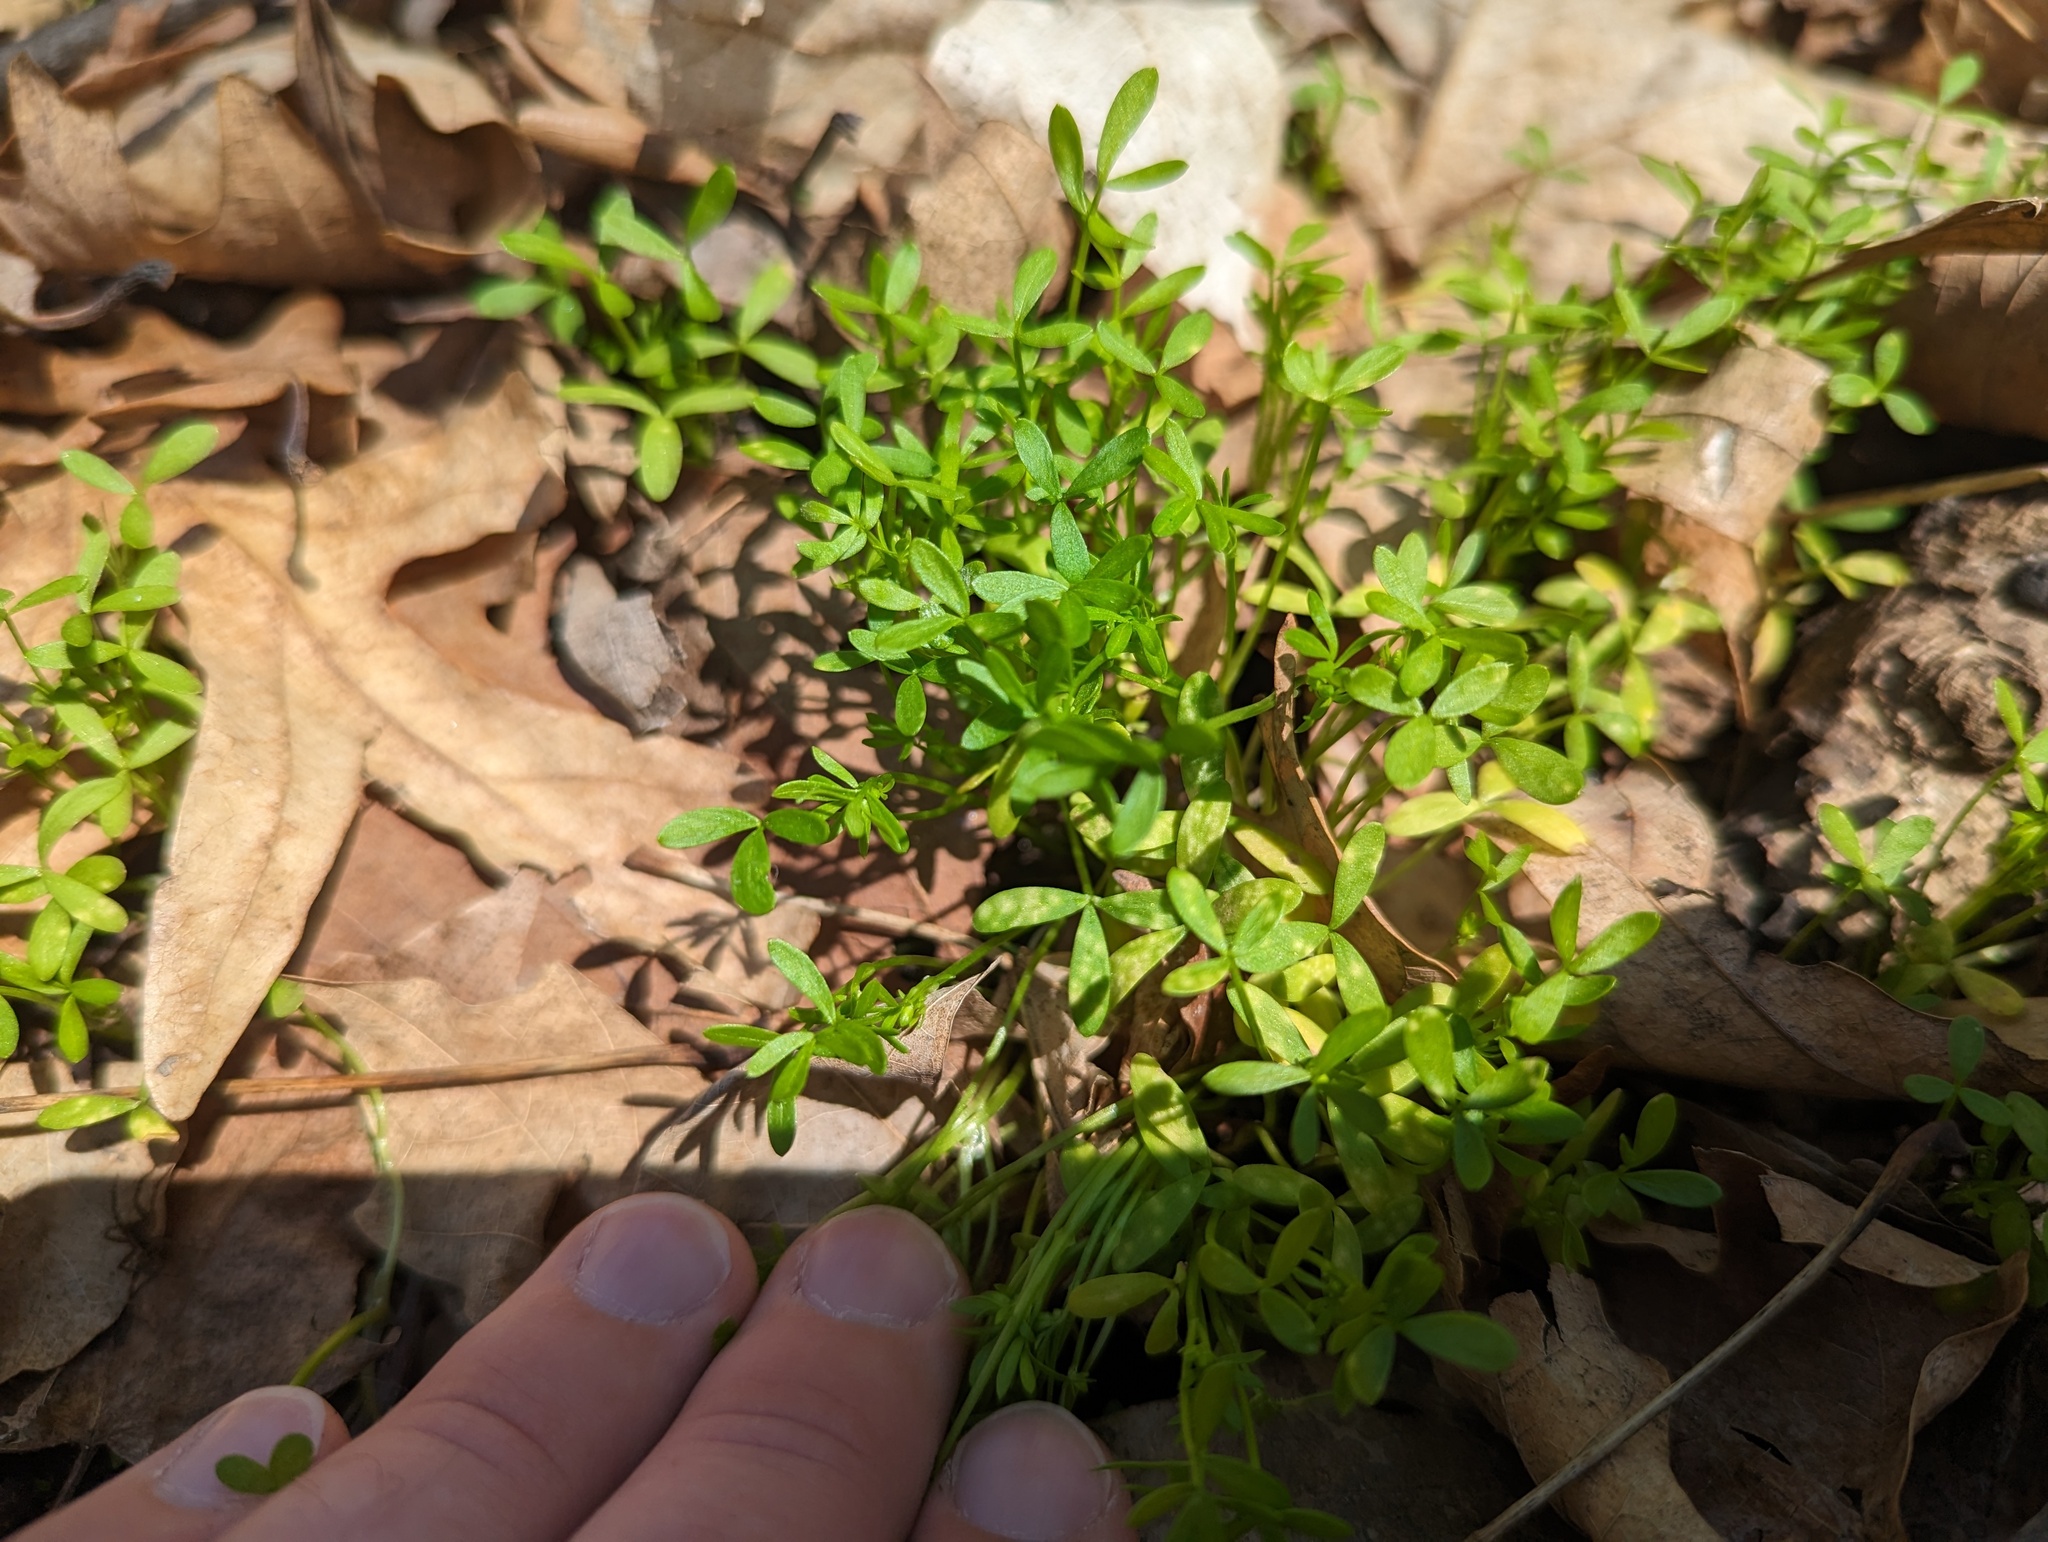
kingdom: Fungi
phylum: Basidiomycota
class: Exobasidiomycetes
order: Entylomatales
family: Entylomataceae
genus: Entyloma
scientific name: Entyloma floerkeae
